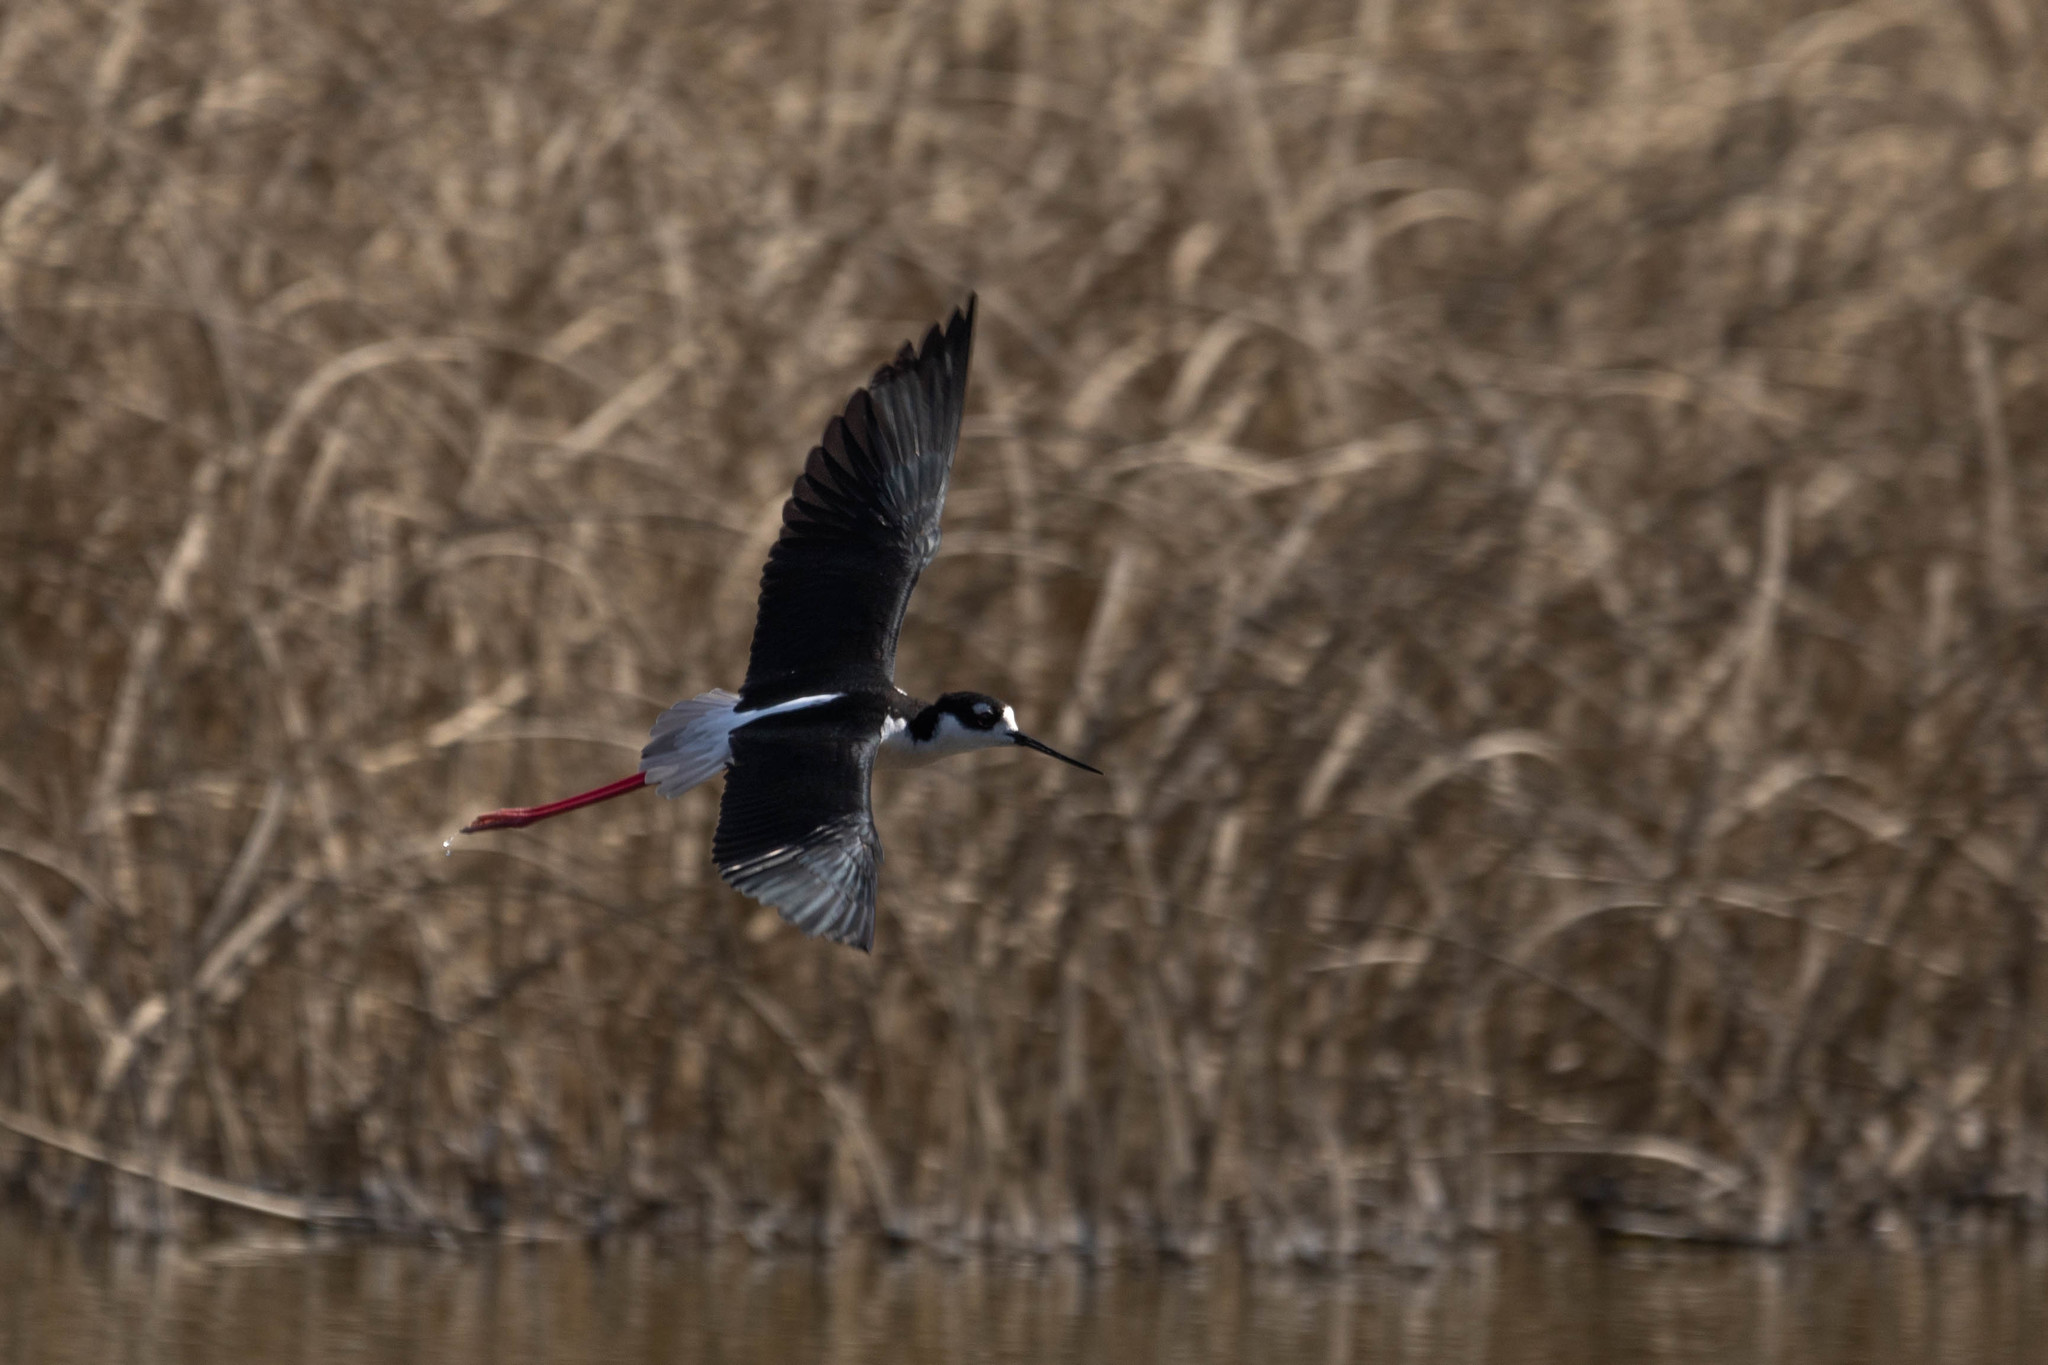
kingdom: Animalia
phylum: Chordata
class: Aves
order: Charadriiformes
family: Recurvirostridae
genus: Himantopus
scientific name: Himantopus mexicanus
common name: Black-necked stilt
